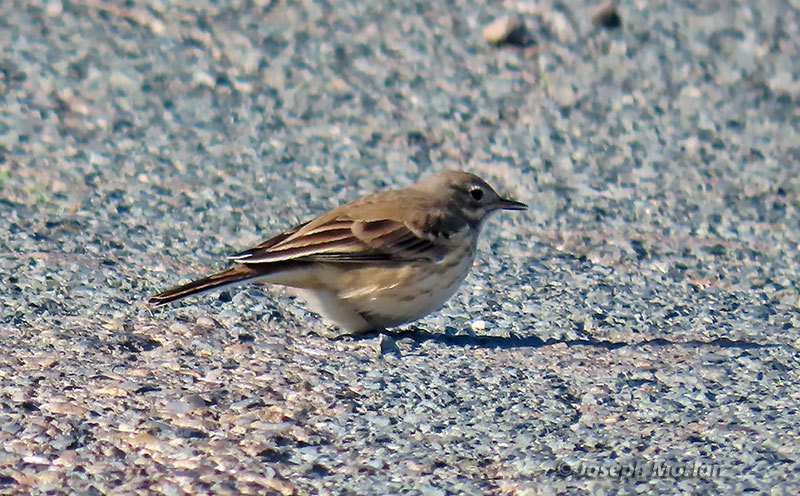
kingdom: Animalia
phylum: Chordata
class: Aves
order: Passeriformes
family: Motacillidae
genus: Anthus
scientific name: Anthus rubescens
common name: Buff-bellied pipit
